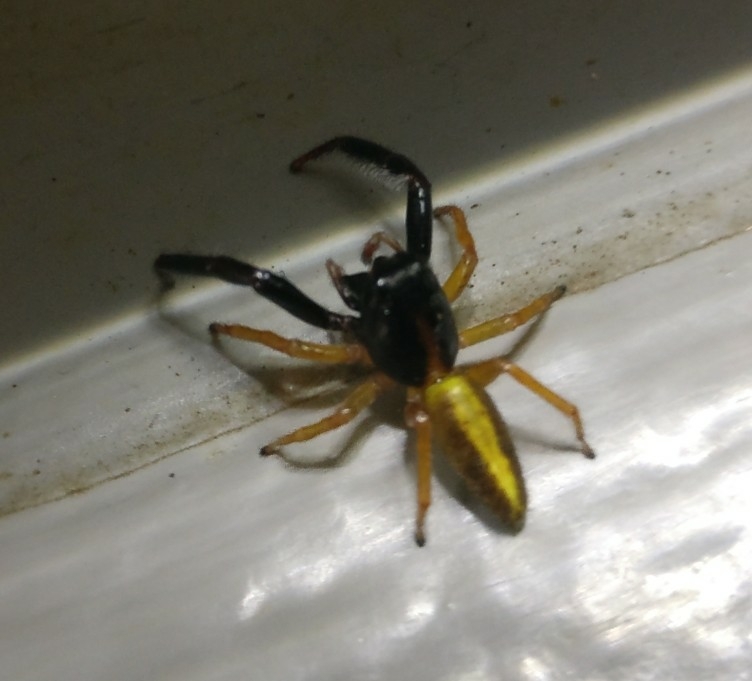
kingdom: Animalia
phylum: Arthropoda
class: Arachnida
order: Araneae
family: Salticidae
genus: Trite
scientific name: Trite planiceps
